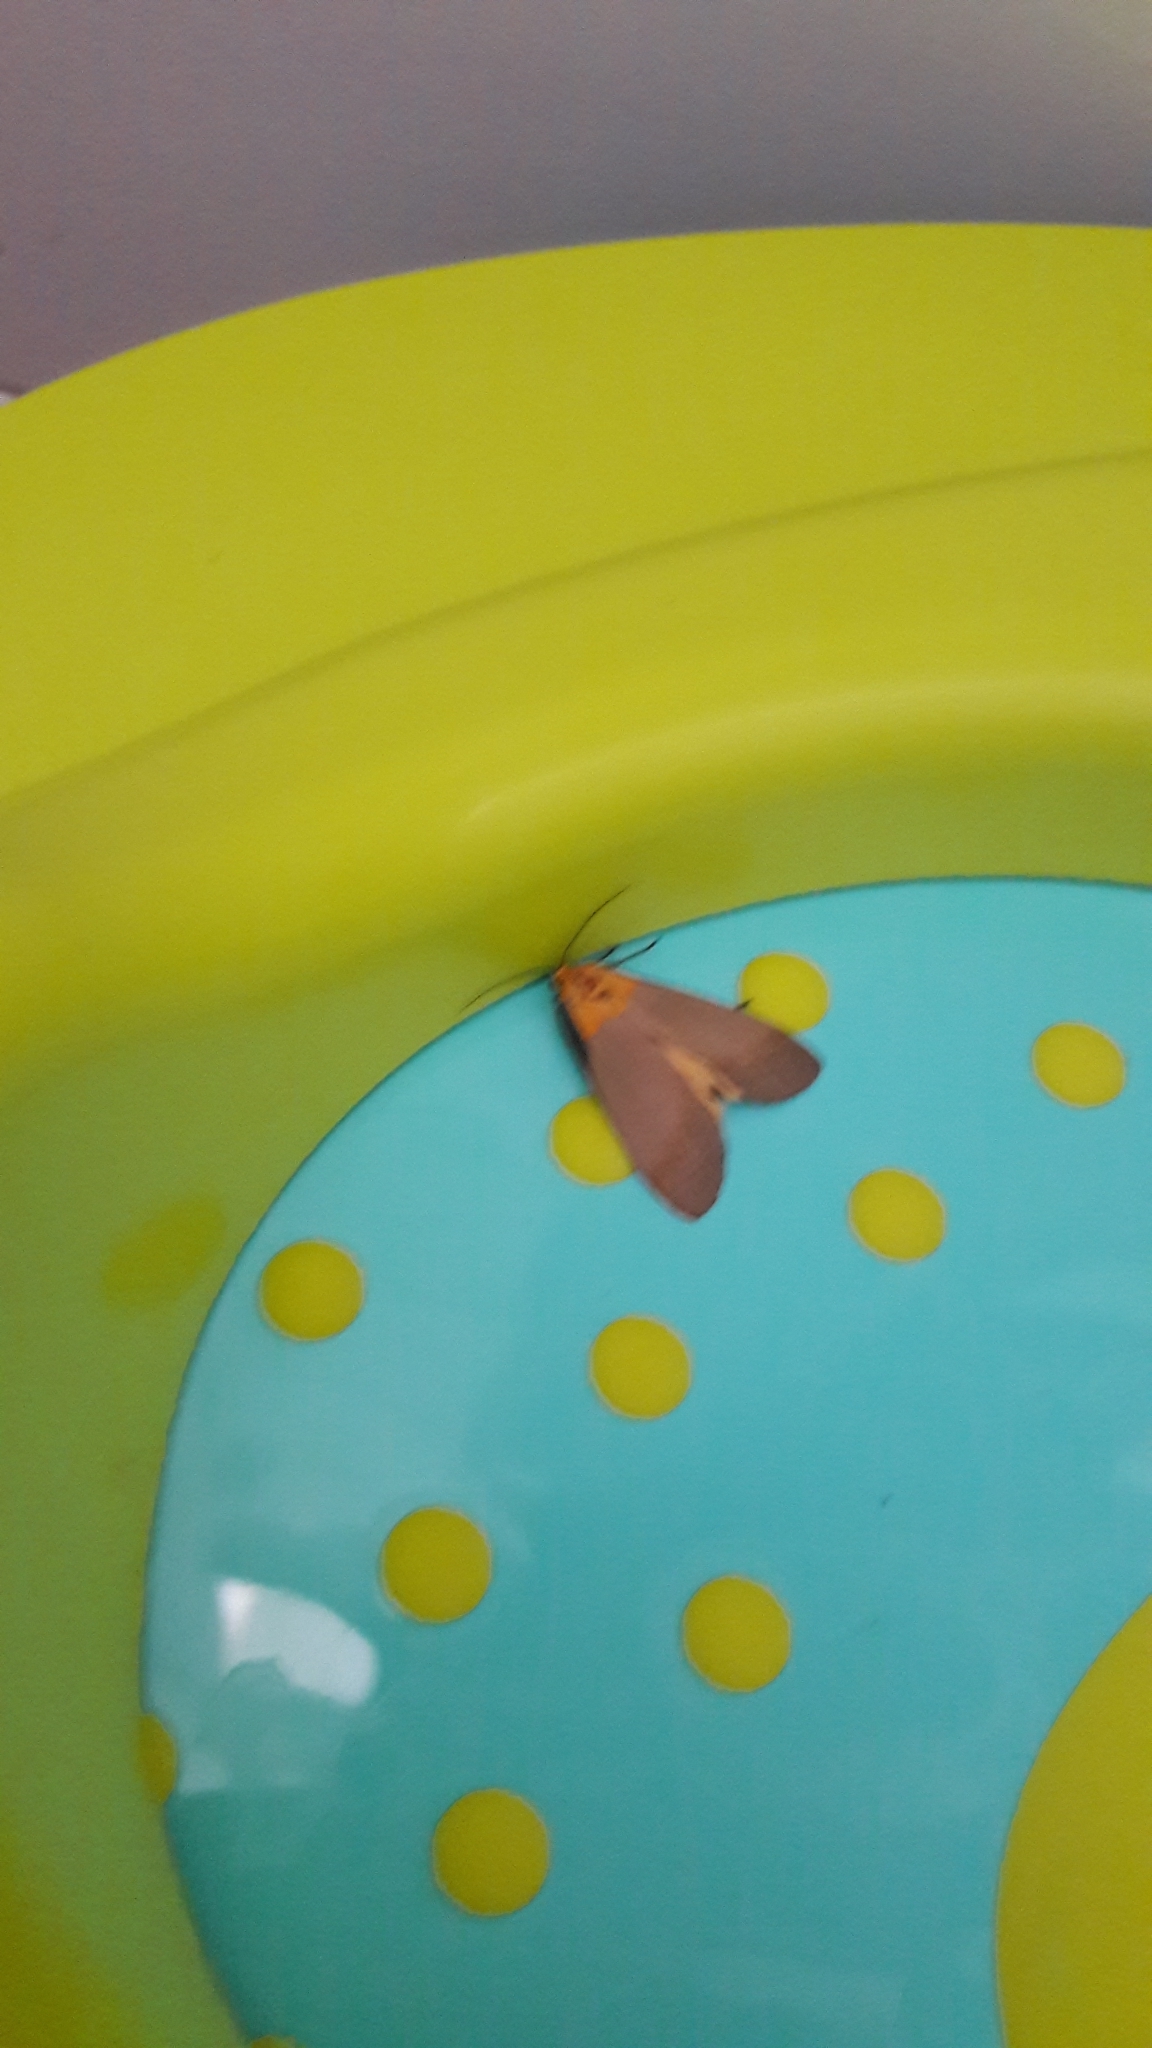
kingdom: Animalia
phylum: Arthropoda
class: Insecta
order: Lepidoptera
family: Erebidae
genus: Lithosia
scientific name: Lithosia quadra
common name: Four-spotted footman
